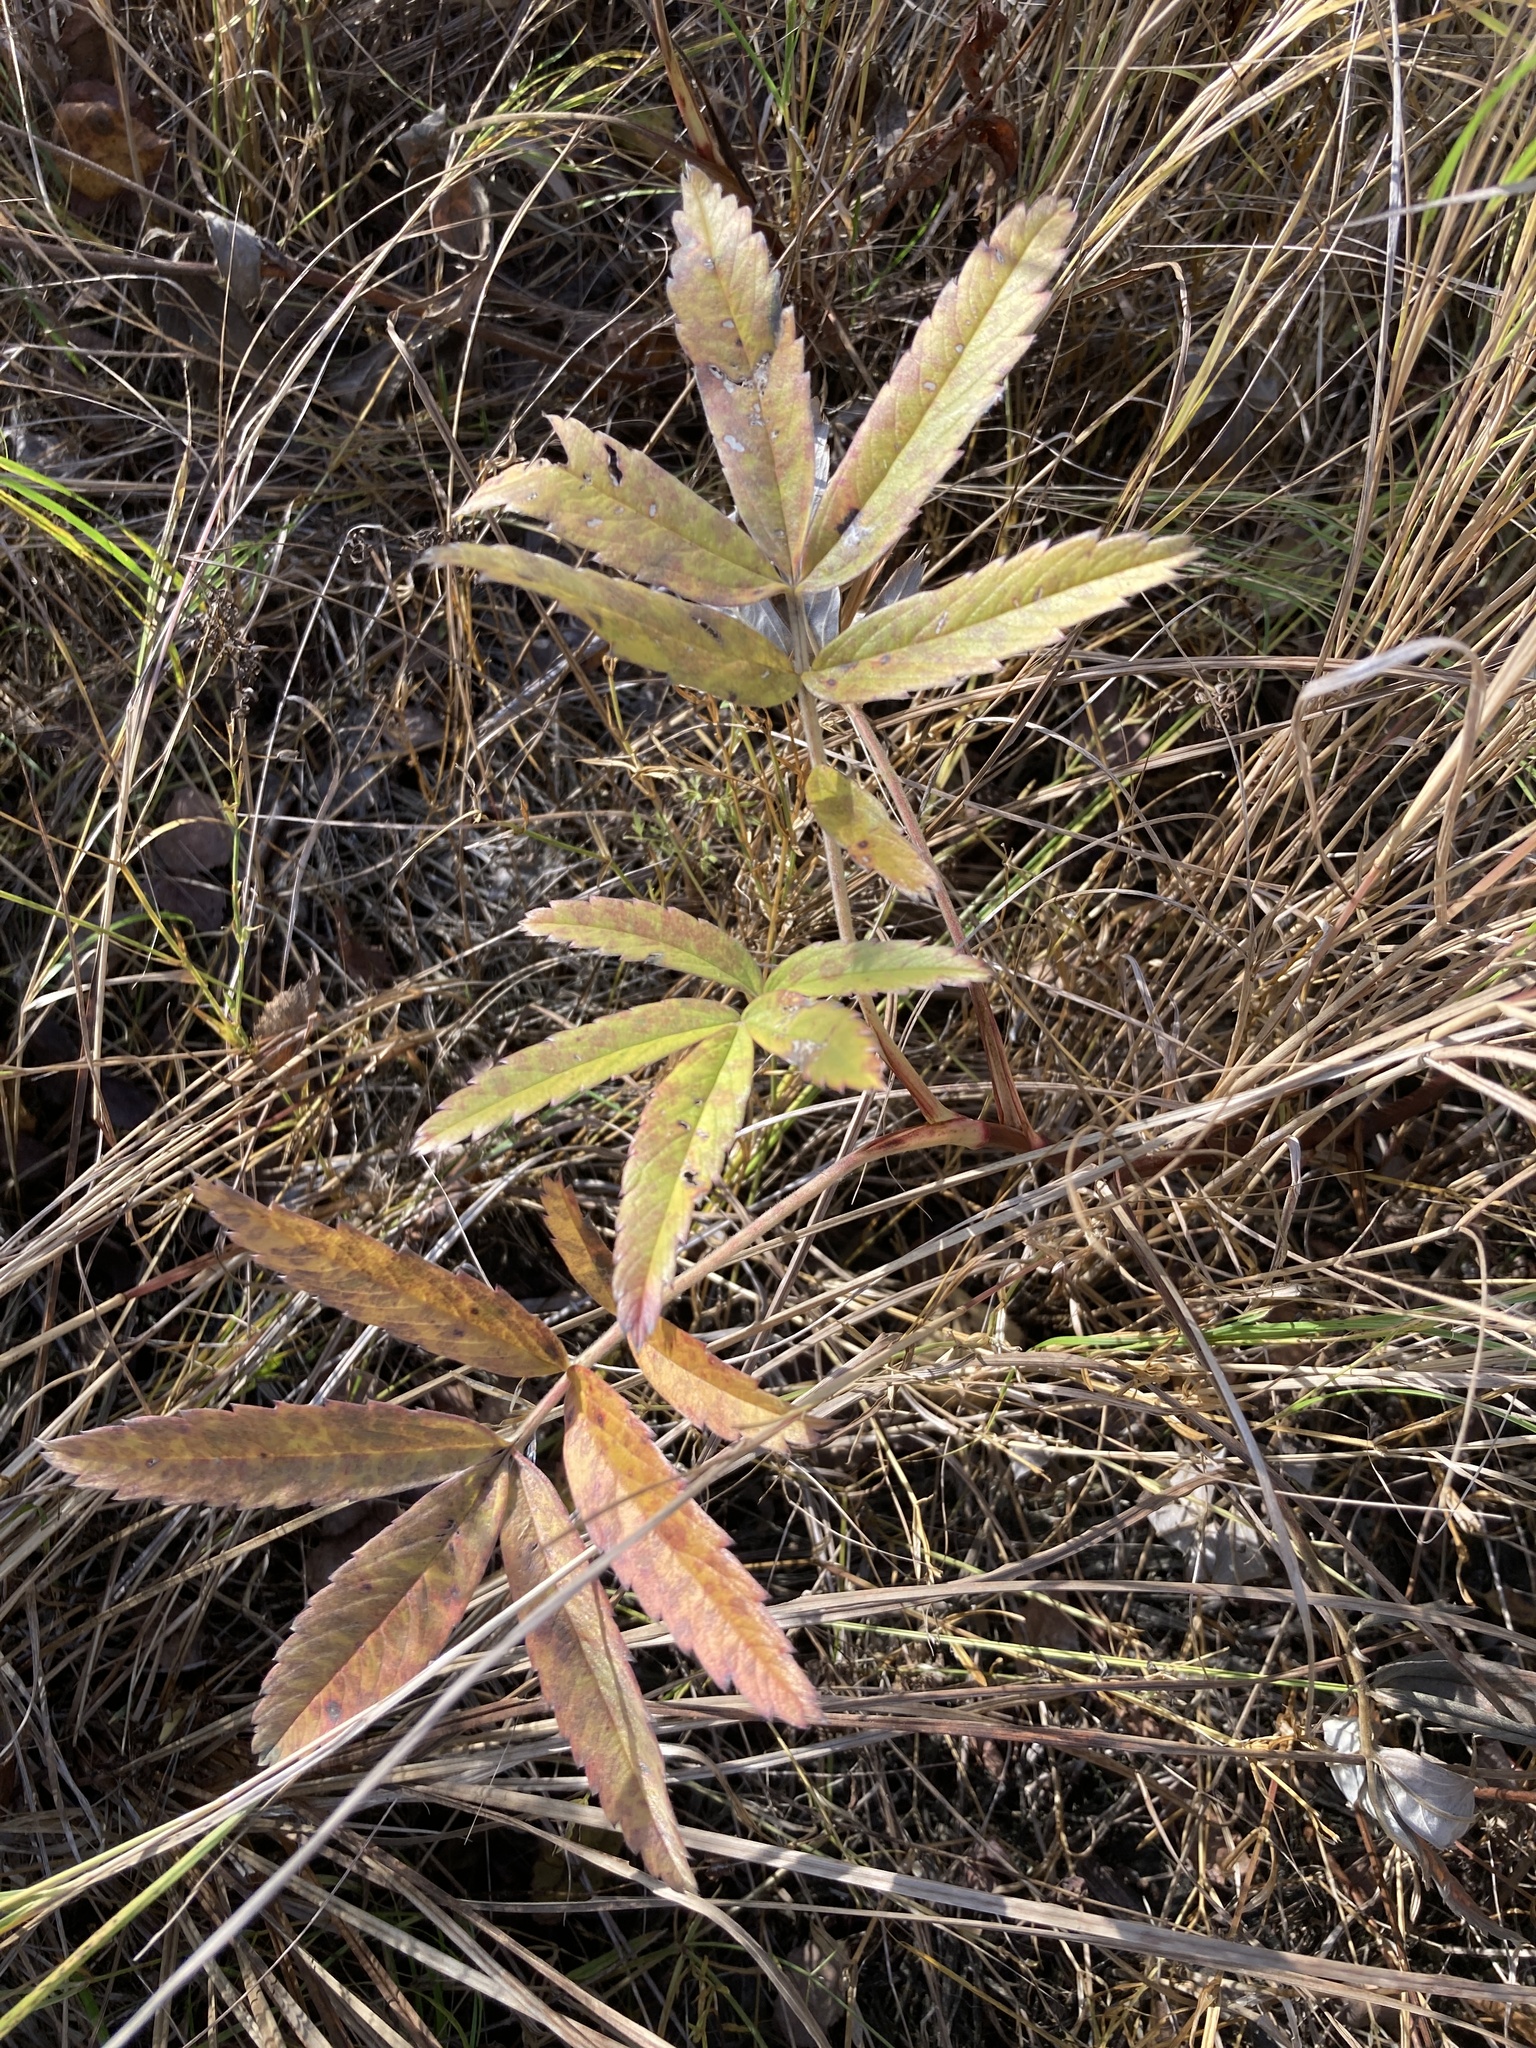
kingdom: Plantae
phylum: Tracheophyta
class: Magnoliopsida
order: Rosales
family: Rosaceae
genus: Comarum
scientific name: Comarum palustre
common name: Marsh cinquefoil
